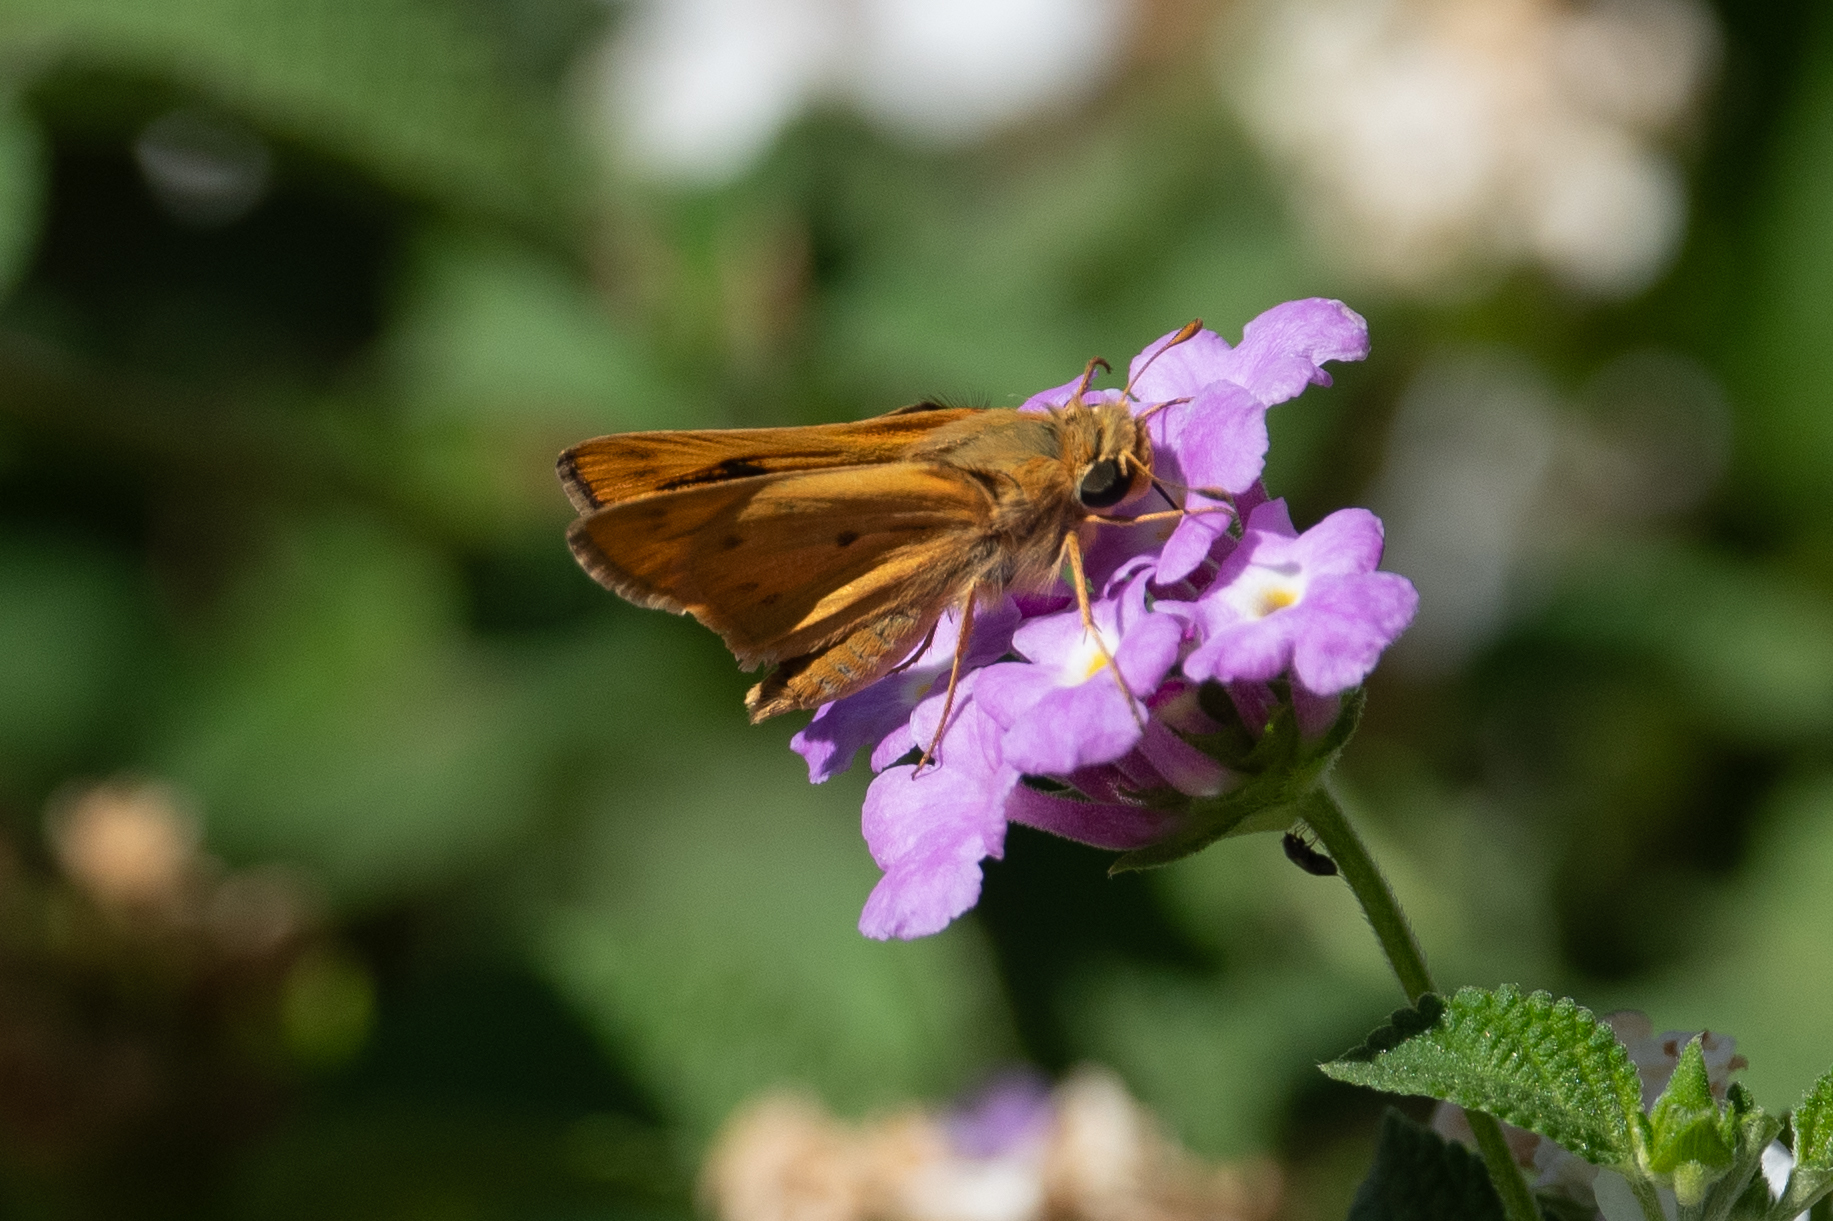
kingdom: Animalia
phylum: Arthropoda
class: Insecta
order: Lepidoptera
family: Hesperiidae
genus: Hylephila
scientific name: Hylephila phyleus
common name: Fiery skipper
